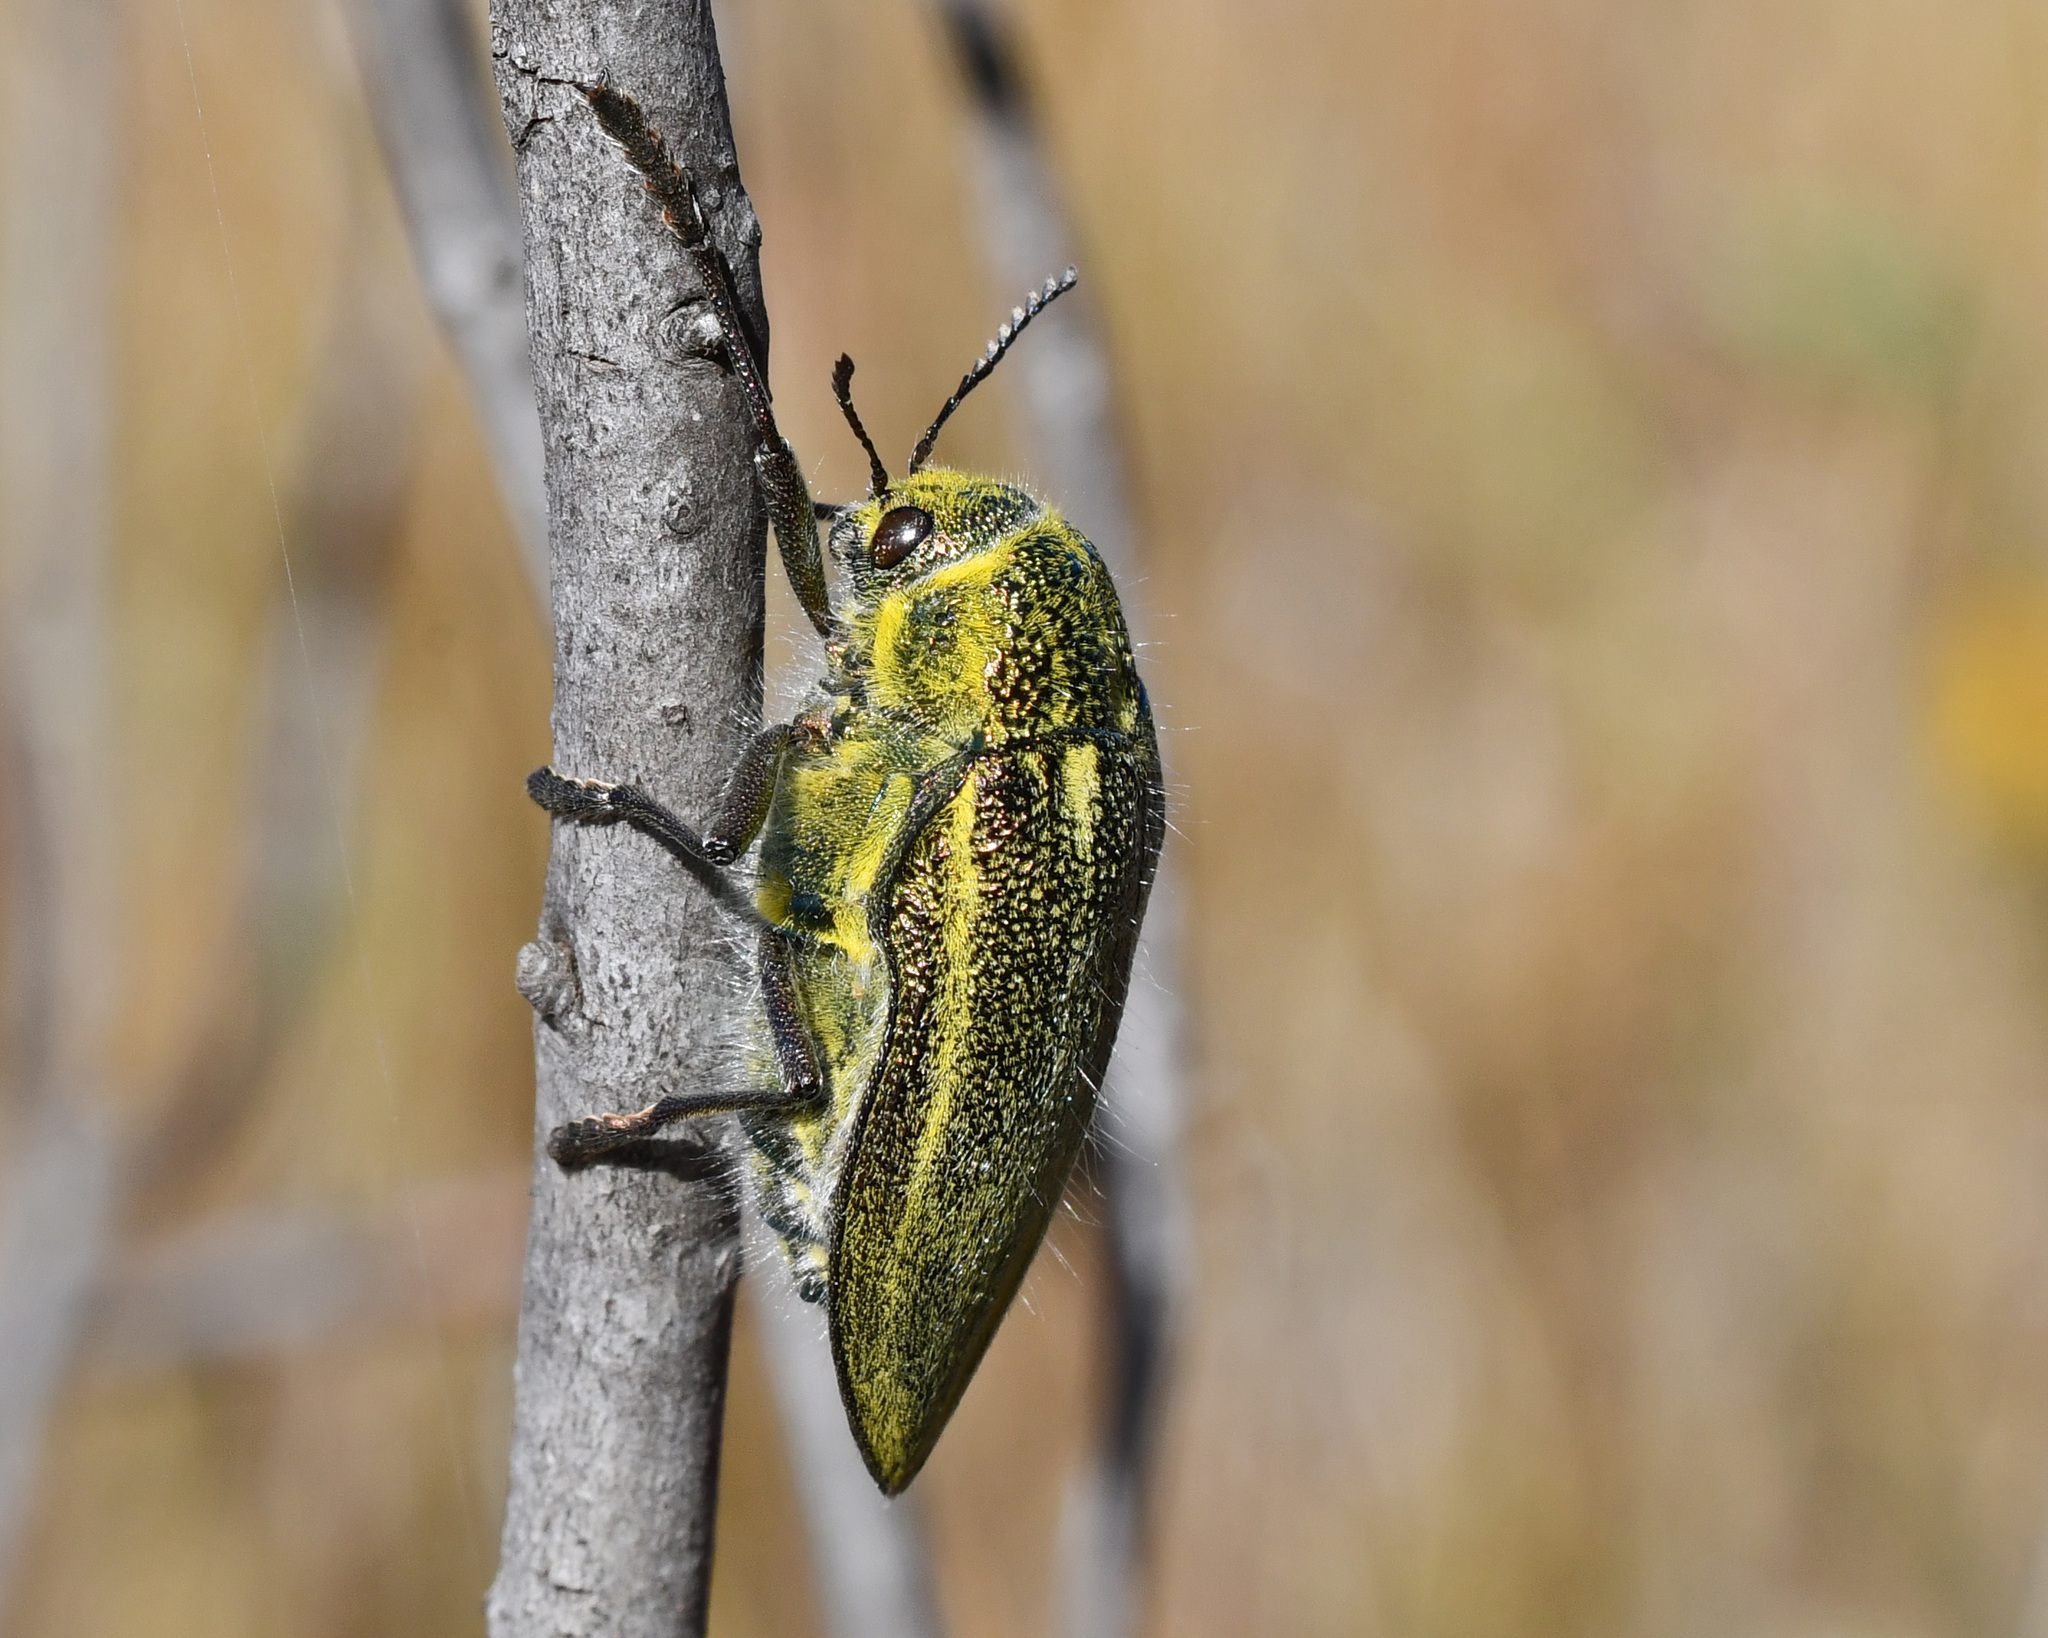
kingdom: Animalia
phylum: Arthropoda
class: Insecta
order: Coleoptera
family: Buprestidae
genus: Julodis
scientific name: Julodis armeniaca
